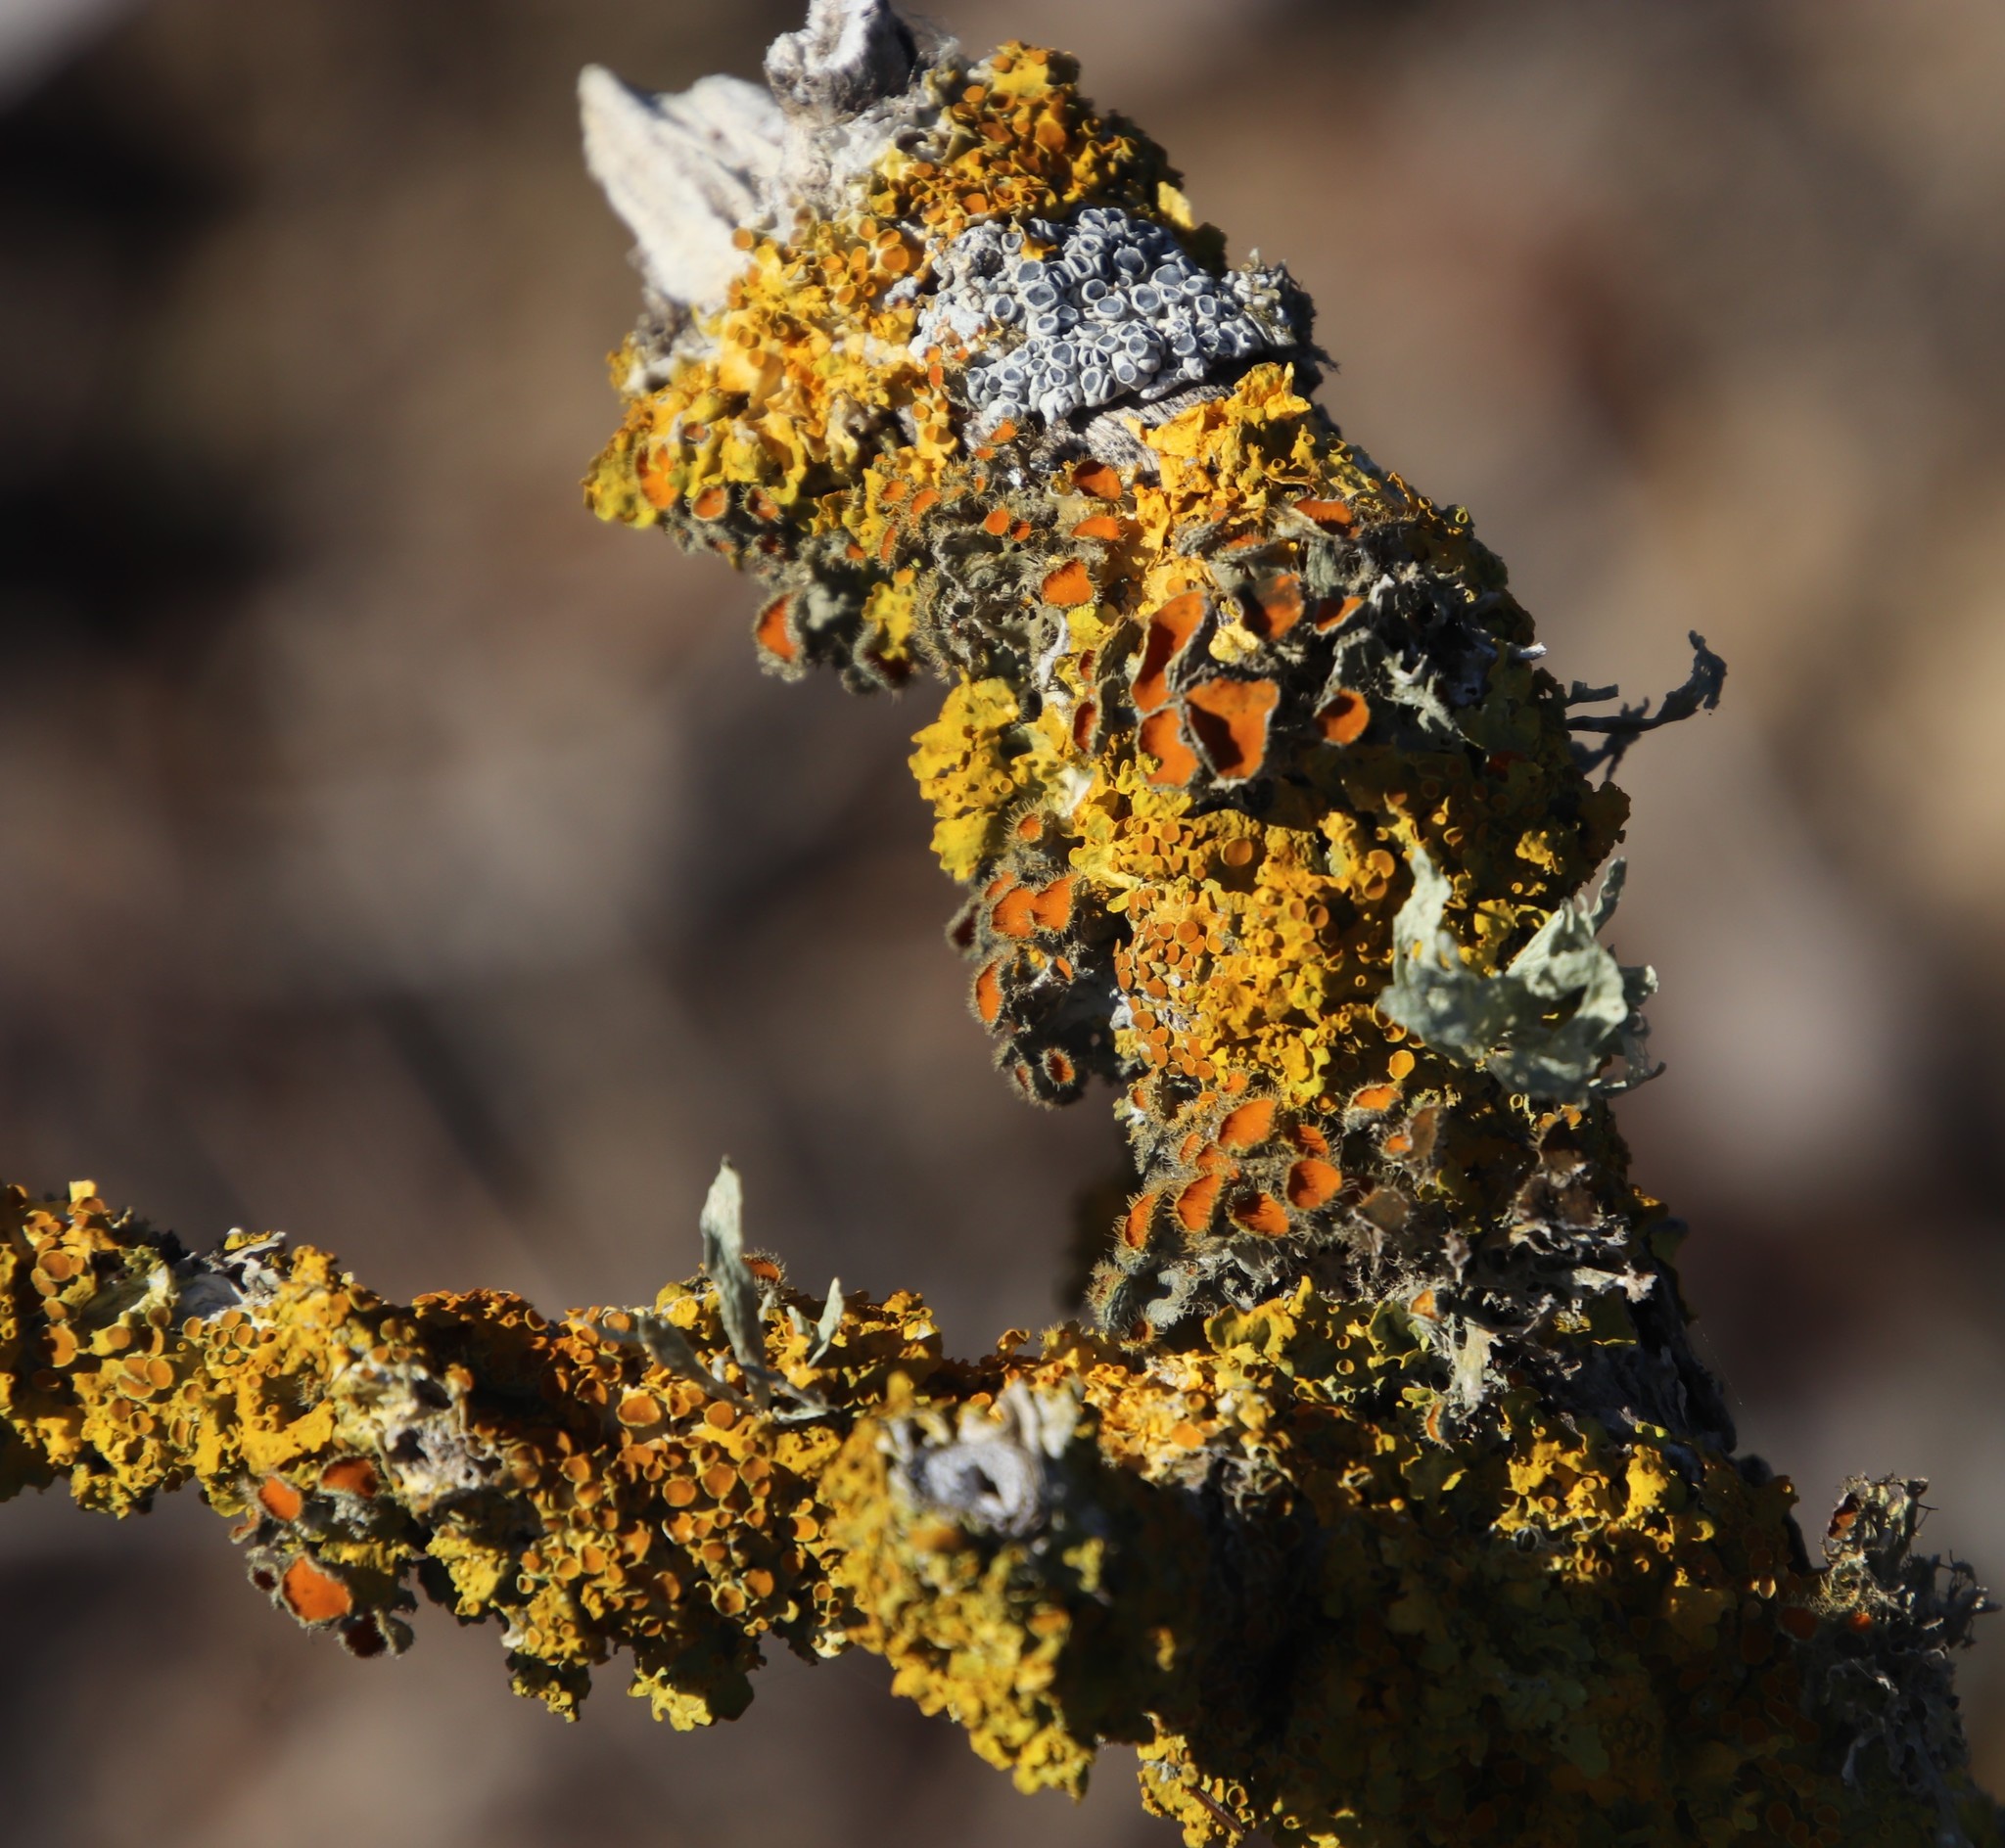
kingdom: Fungi
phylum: Ascomycota
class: Lecanoromycetes
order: Teloschistales
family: Teloschistaceae
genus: Xanthoria
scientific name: Xanthoria parietina
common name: Common orange lichen
